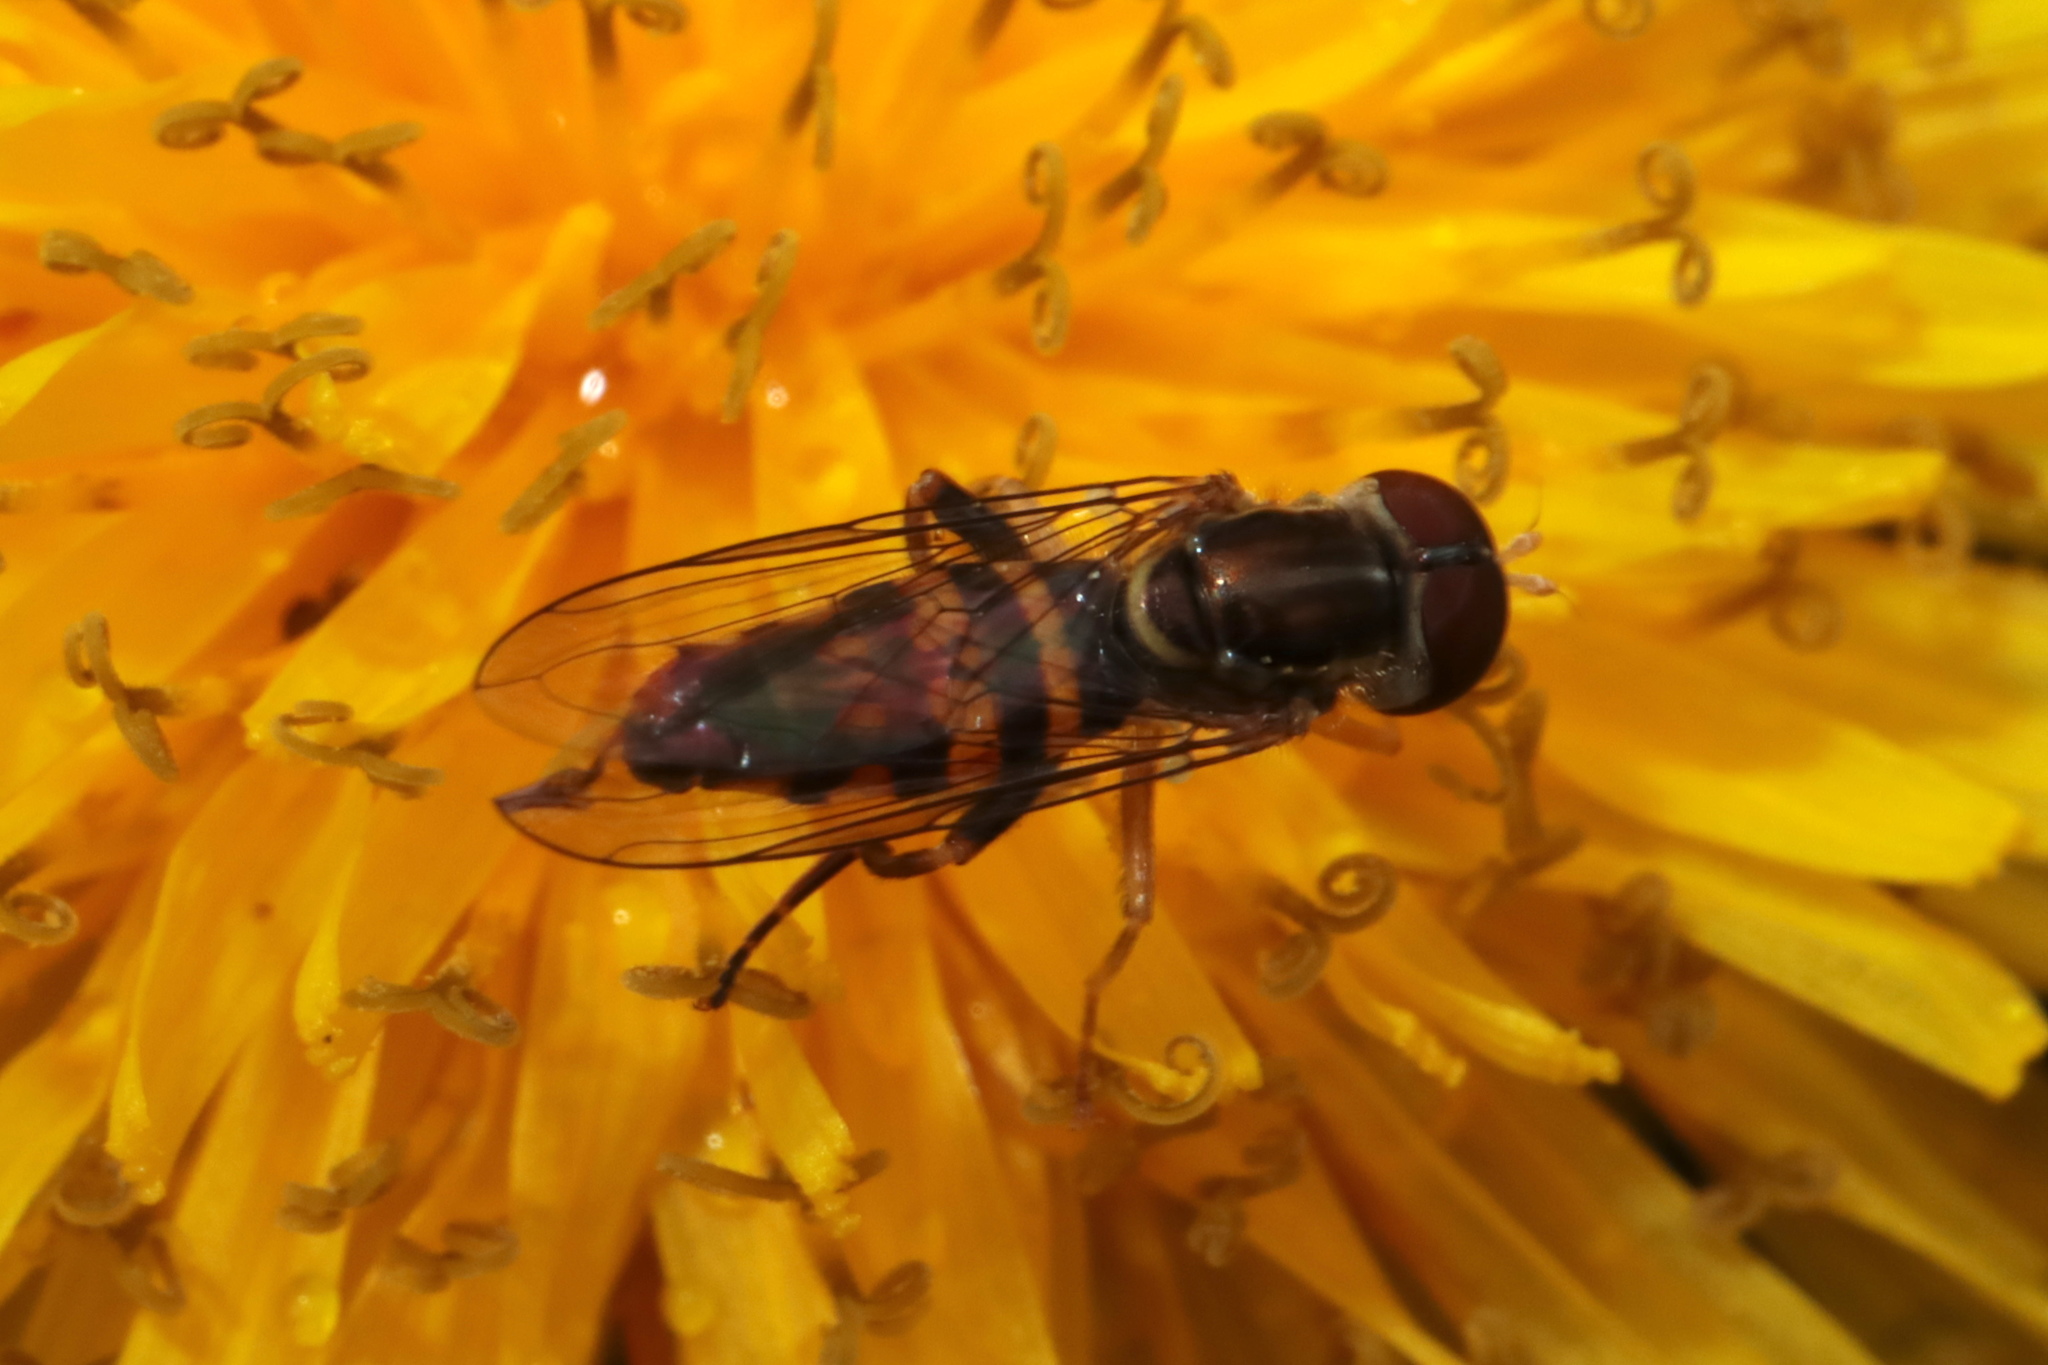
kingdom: Animalia
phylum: Arthropoda
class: Insecta
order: Diptera
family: Syrphidae
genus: Toxomerus
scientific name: Toxomerus geminatus
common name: Eastern calligrapher
